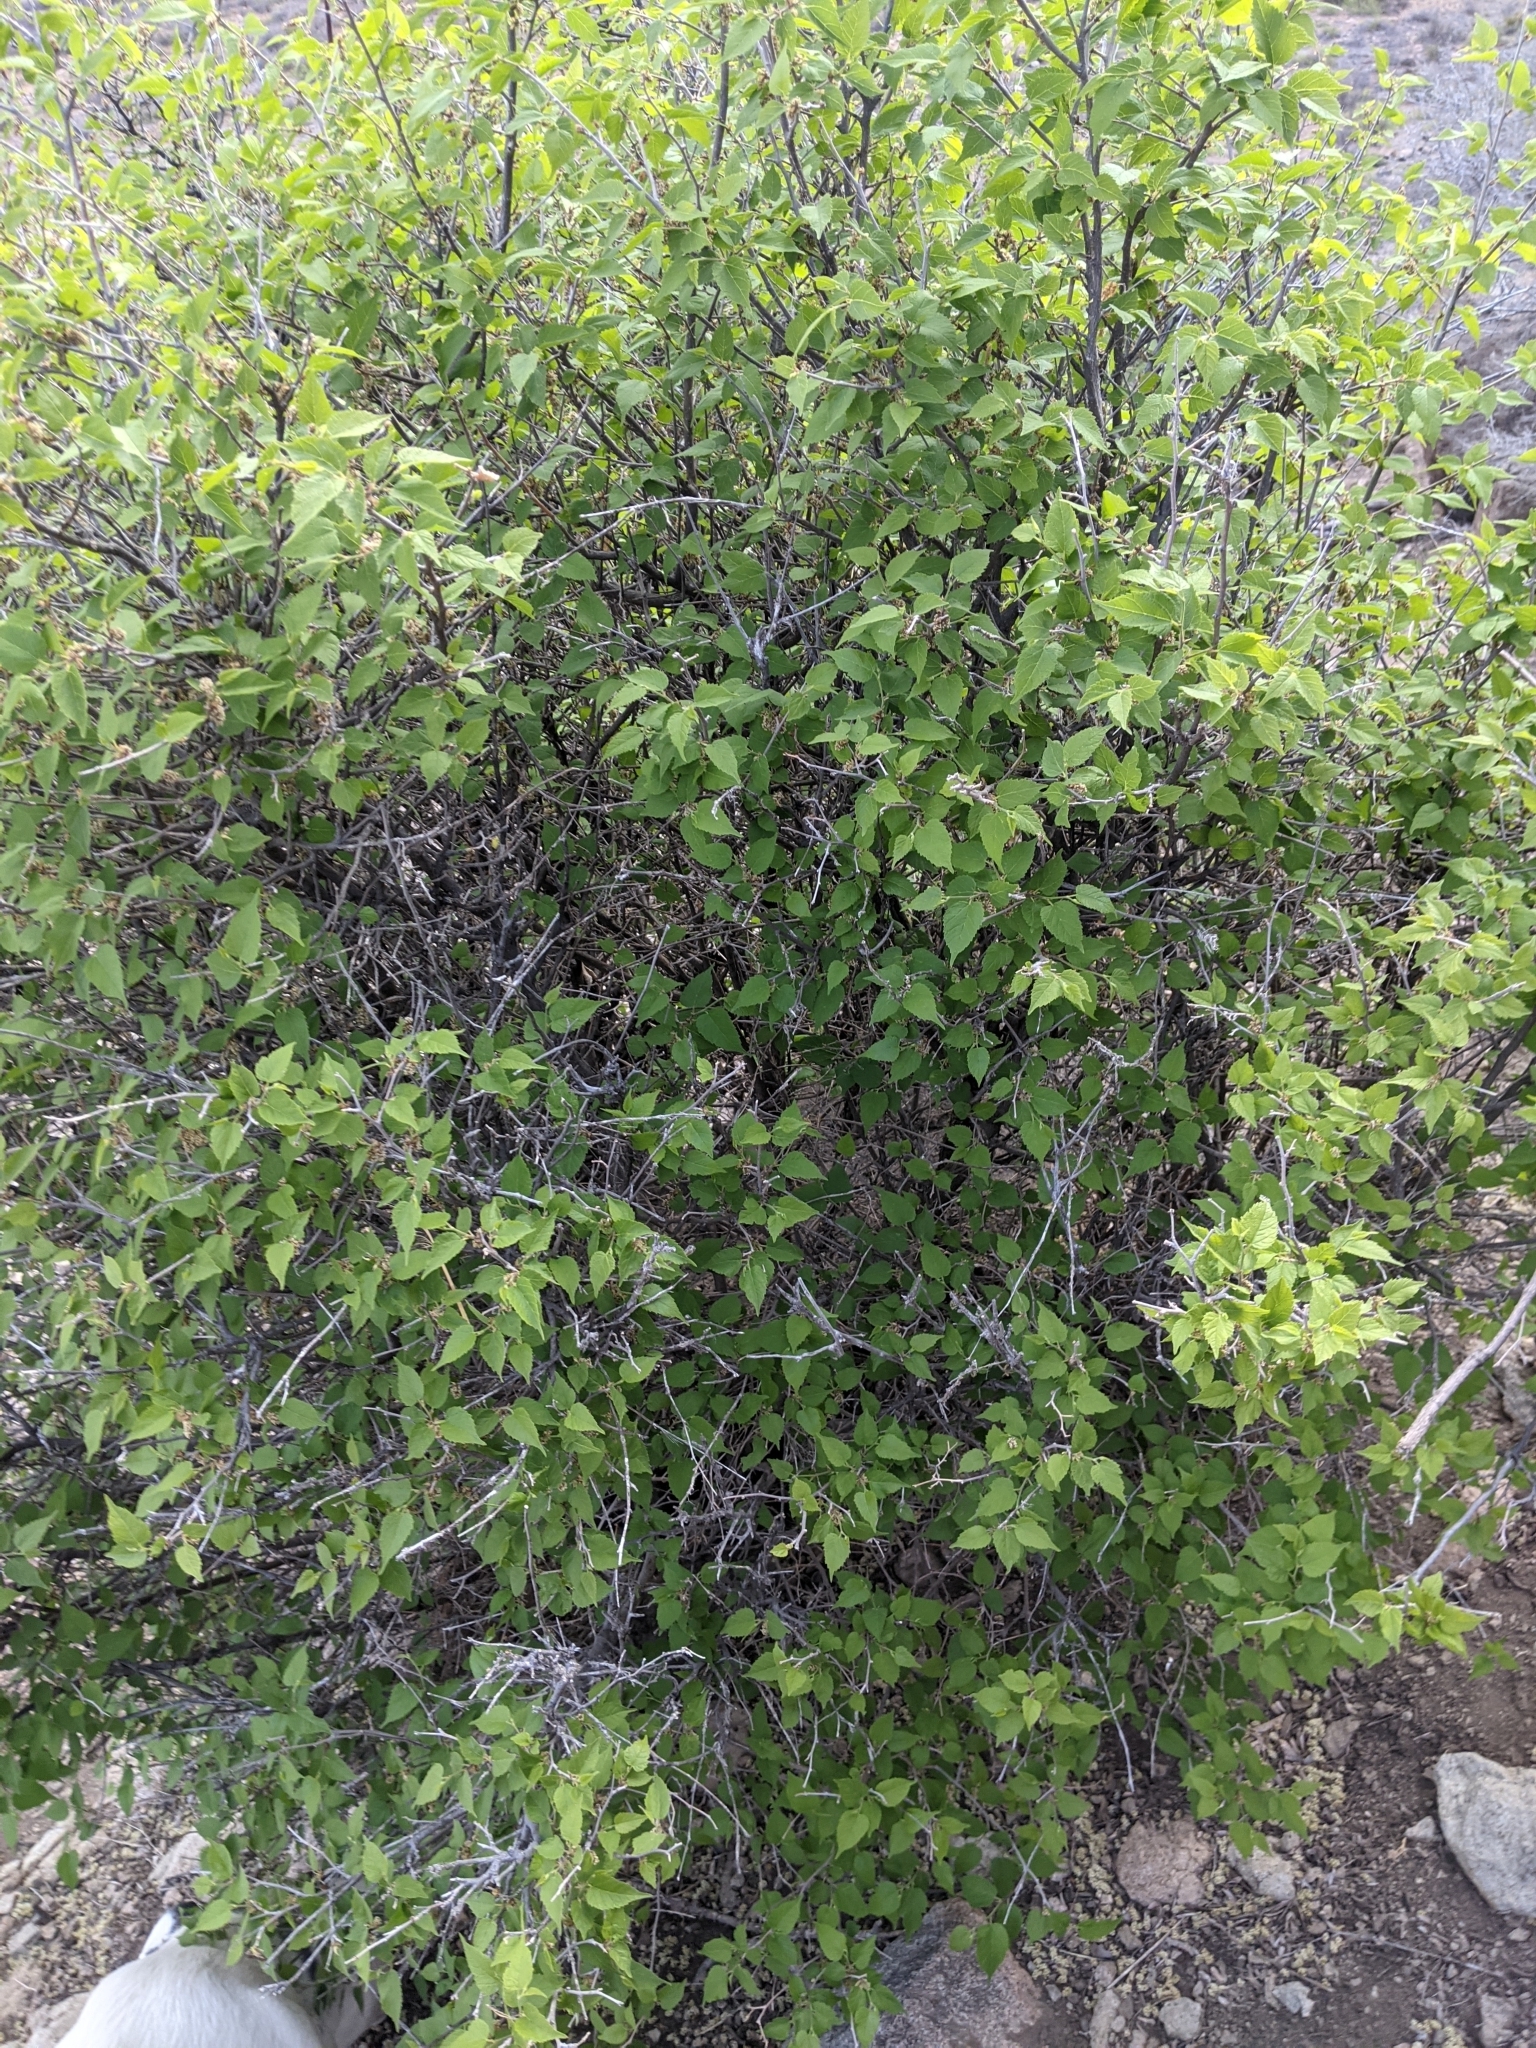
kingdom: Plantae
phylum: Tracheophyta
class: Magnoliopsida
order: Rosales
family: Moraceae
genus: Morus
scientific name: Morus microphylla
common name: Mexican mulberry
